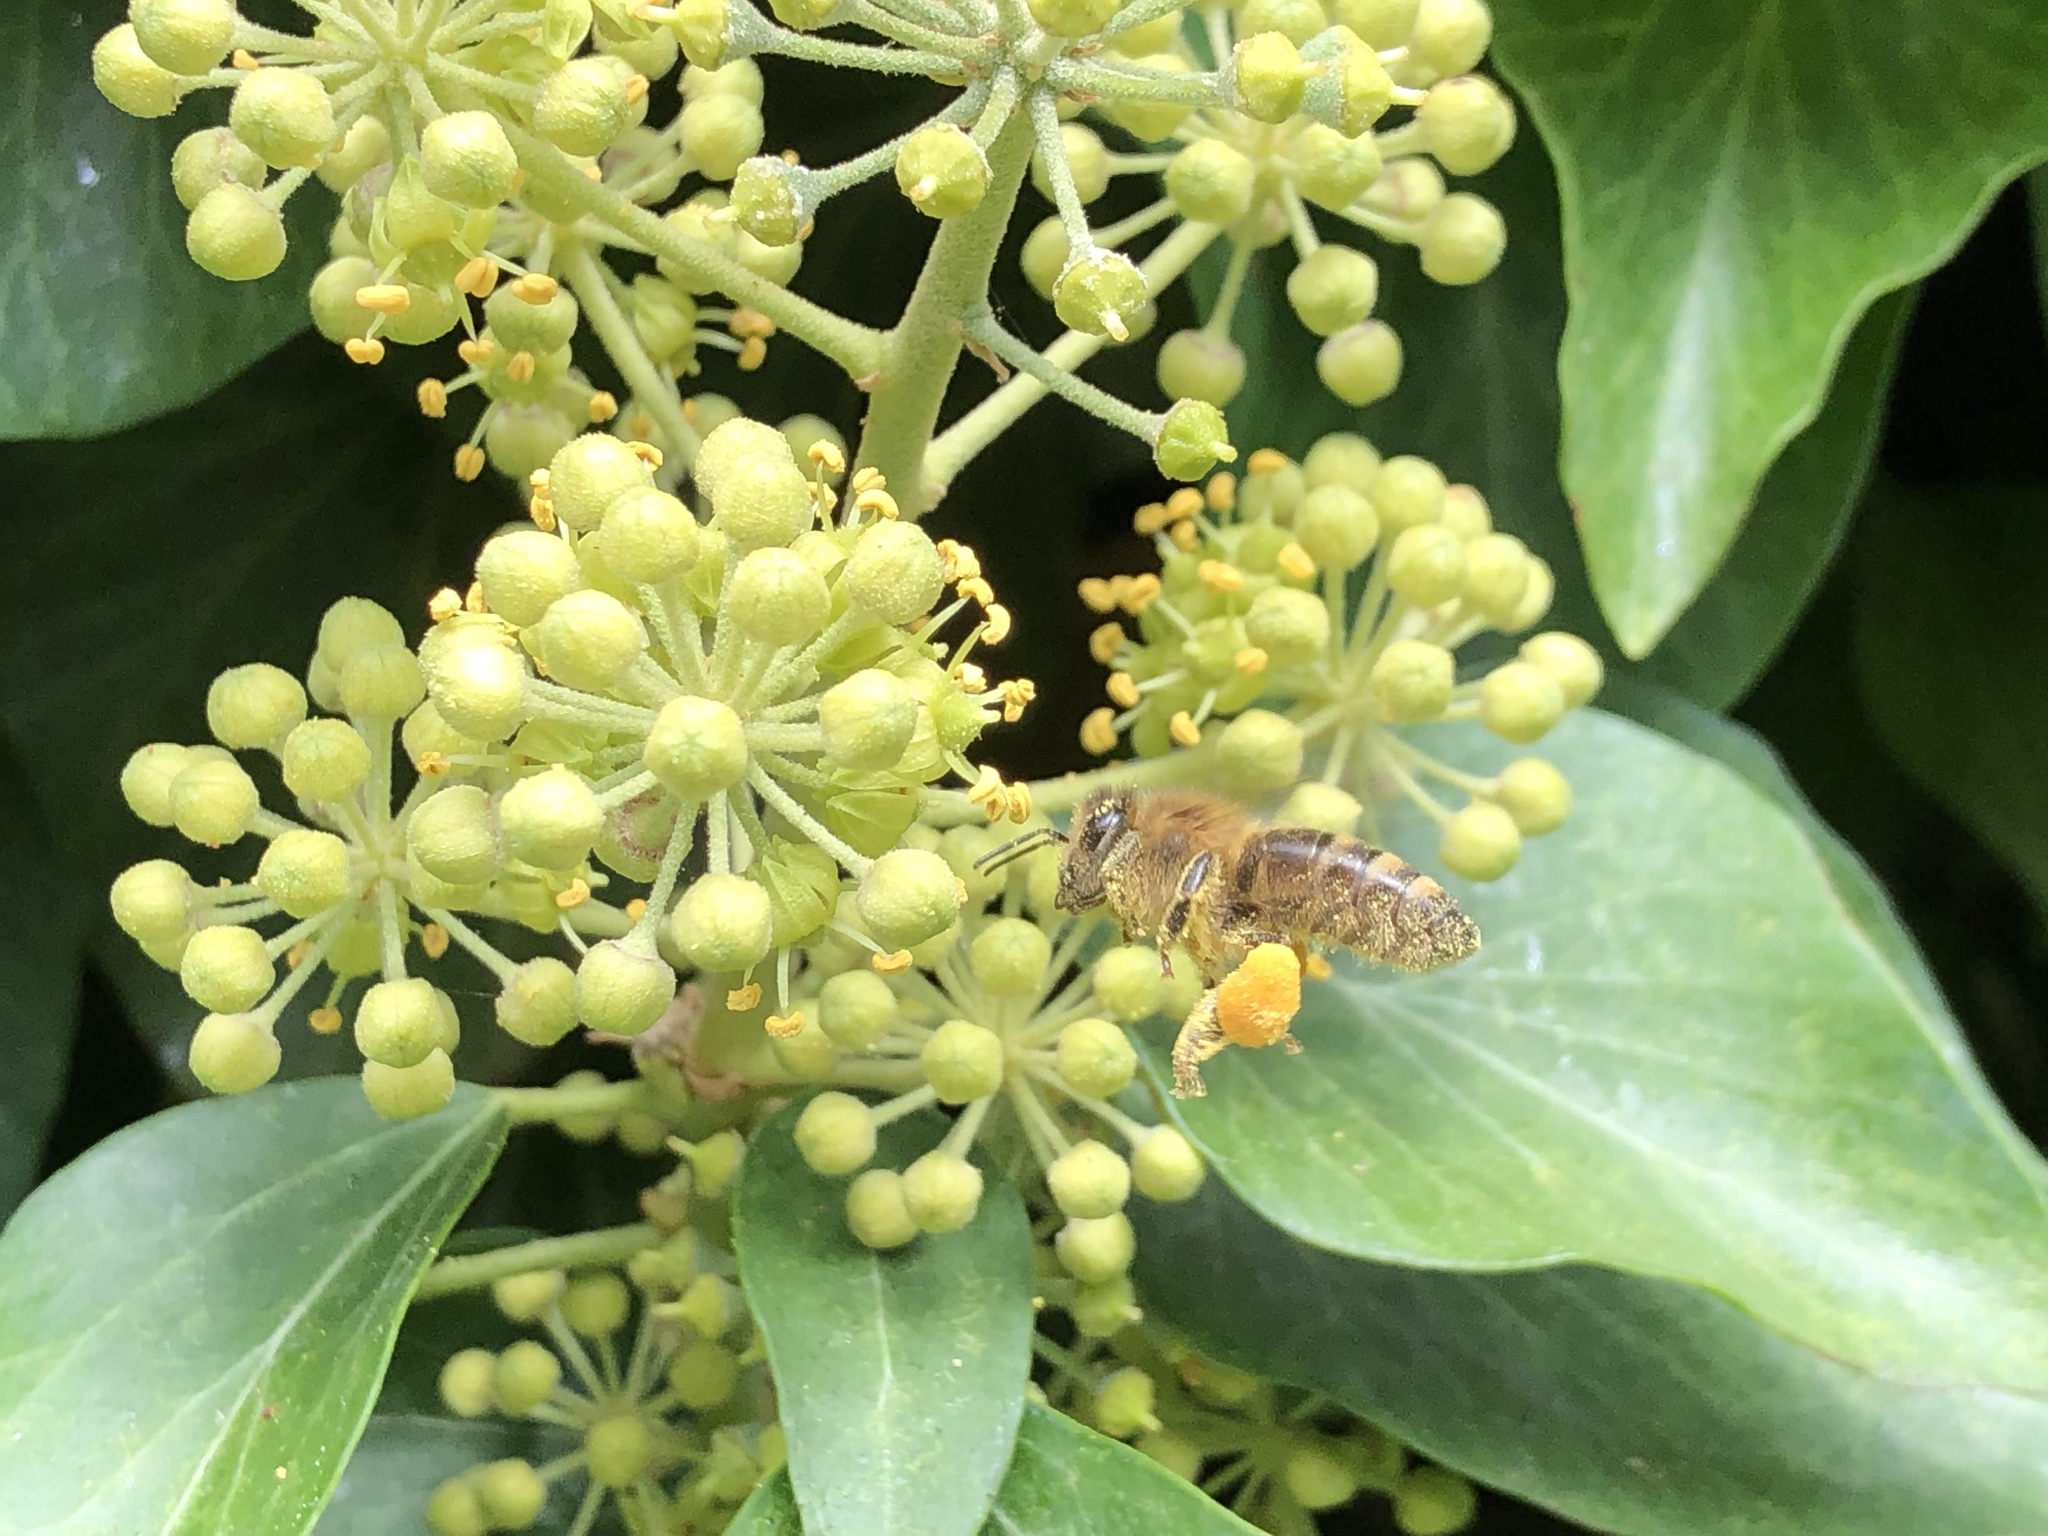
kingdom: Animalia
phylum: Arthropoda
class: Insecta
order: Hymenoptera
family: Apidae
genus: Apis
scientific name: Apis mellifera
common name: Honey bee
